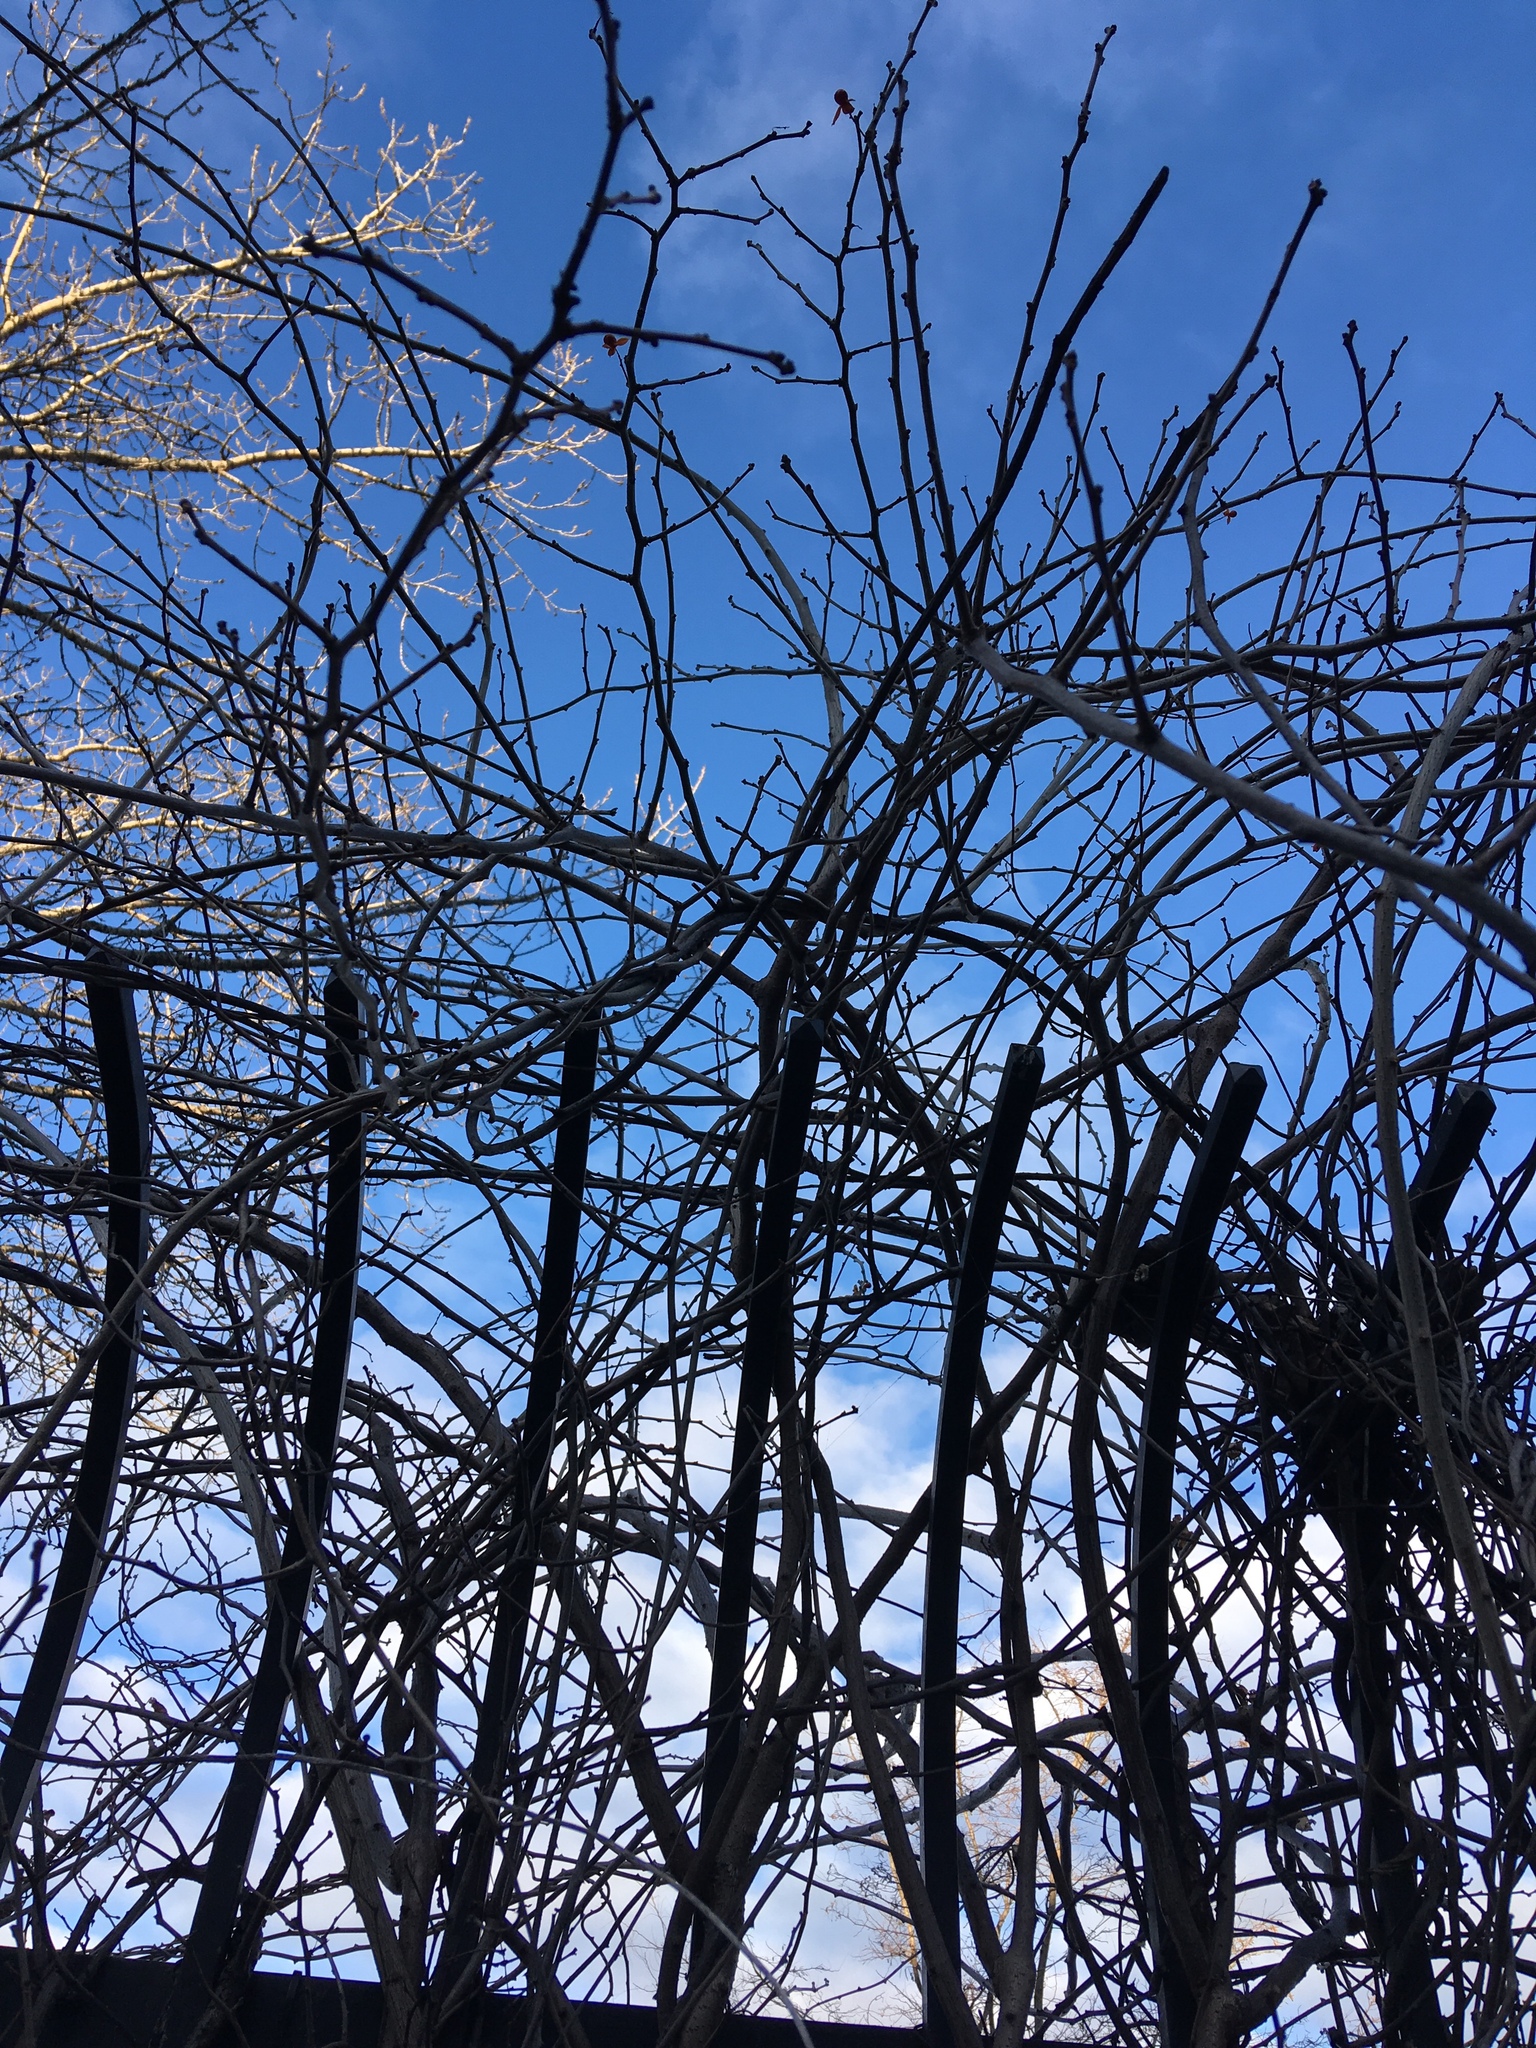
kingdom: Plantae
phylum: Tracheophyta
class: Magnoliopsida
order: Celastrales
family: Celastraceae
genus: Celastrus
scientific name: Celastrus orbiculatus
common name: Oriental bittersweet
